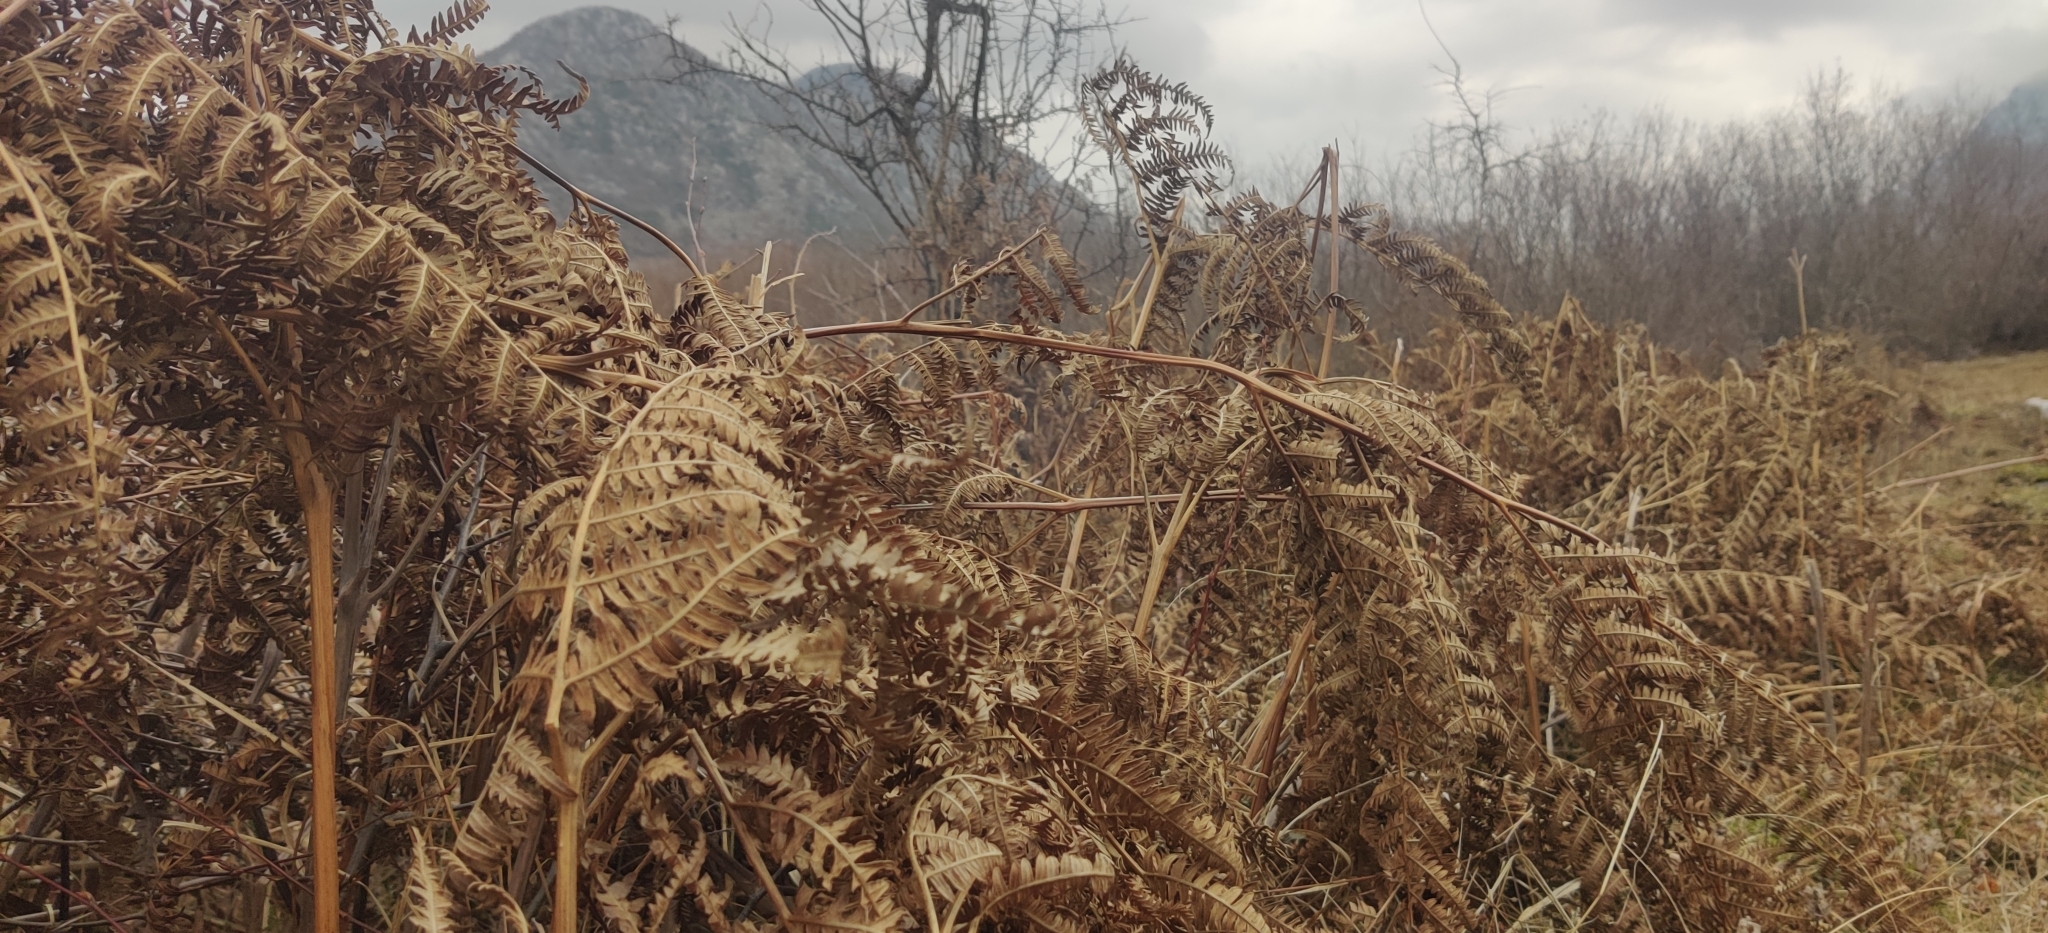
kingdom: Plantae
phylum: Tracheophyta
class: Polypodiopsida
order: Polypodiales
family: Dennstaedtiaceae
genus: Pteridium
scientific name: Pteridium aquilinum
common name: Bracken
